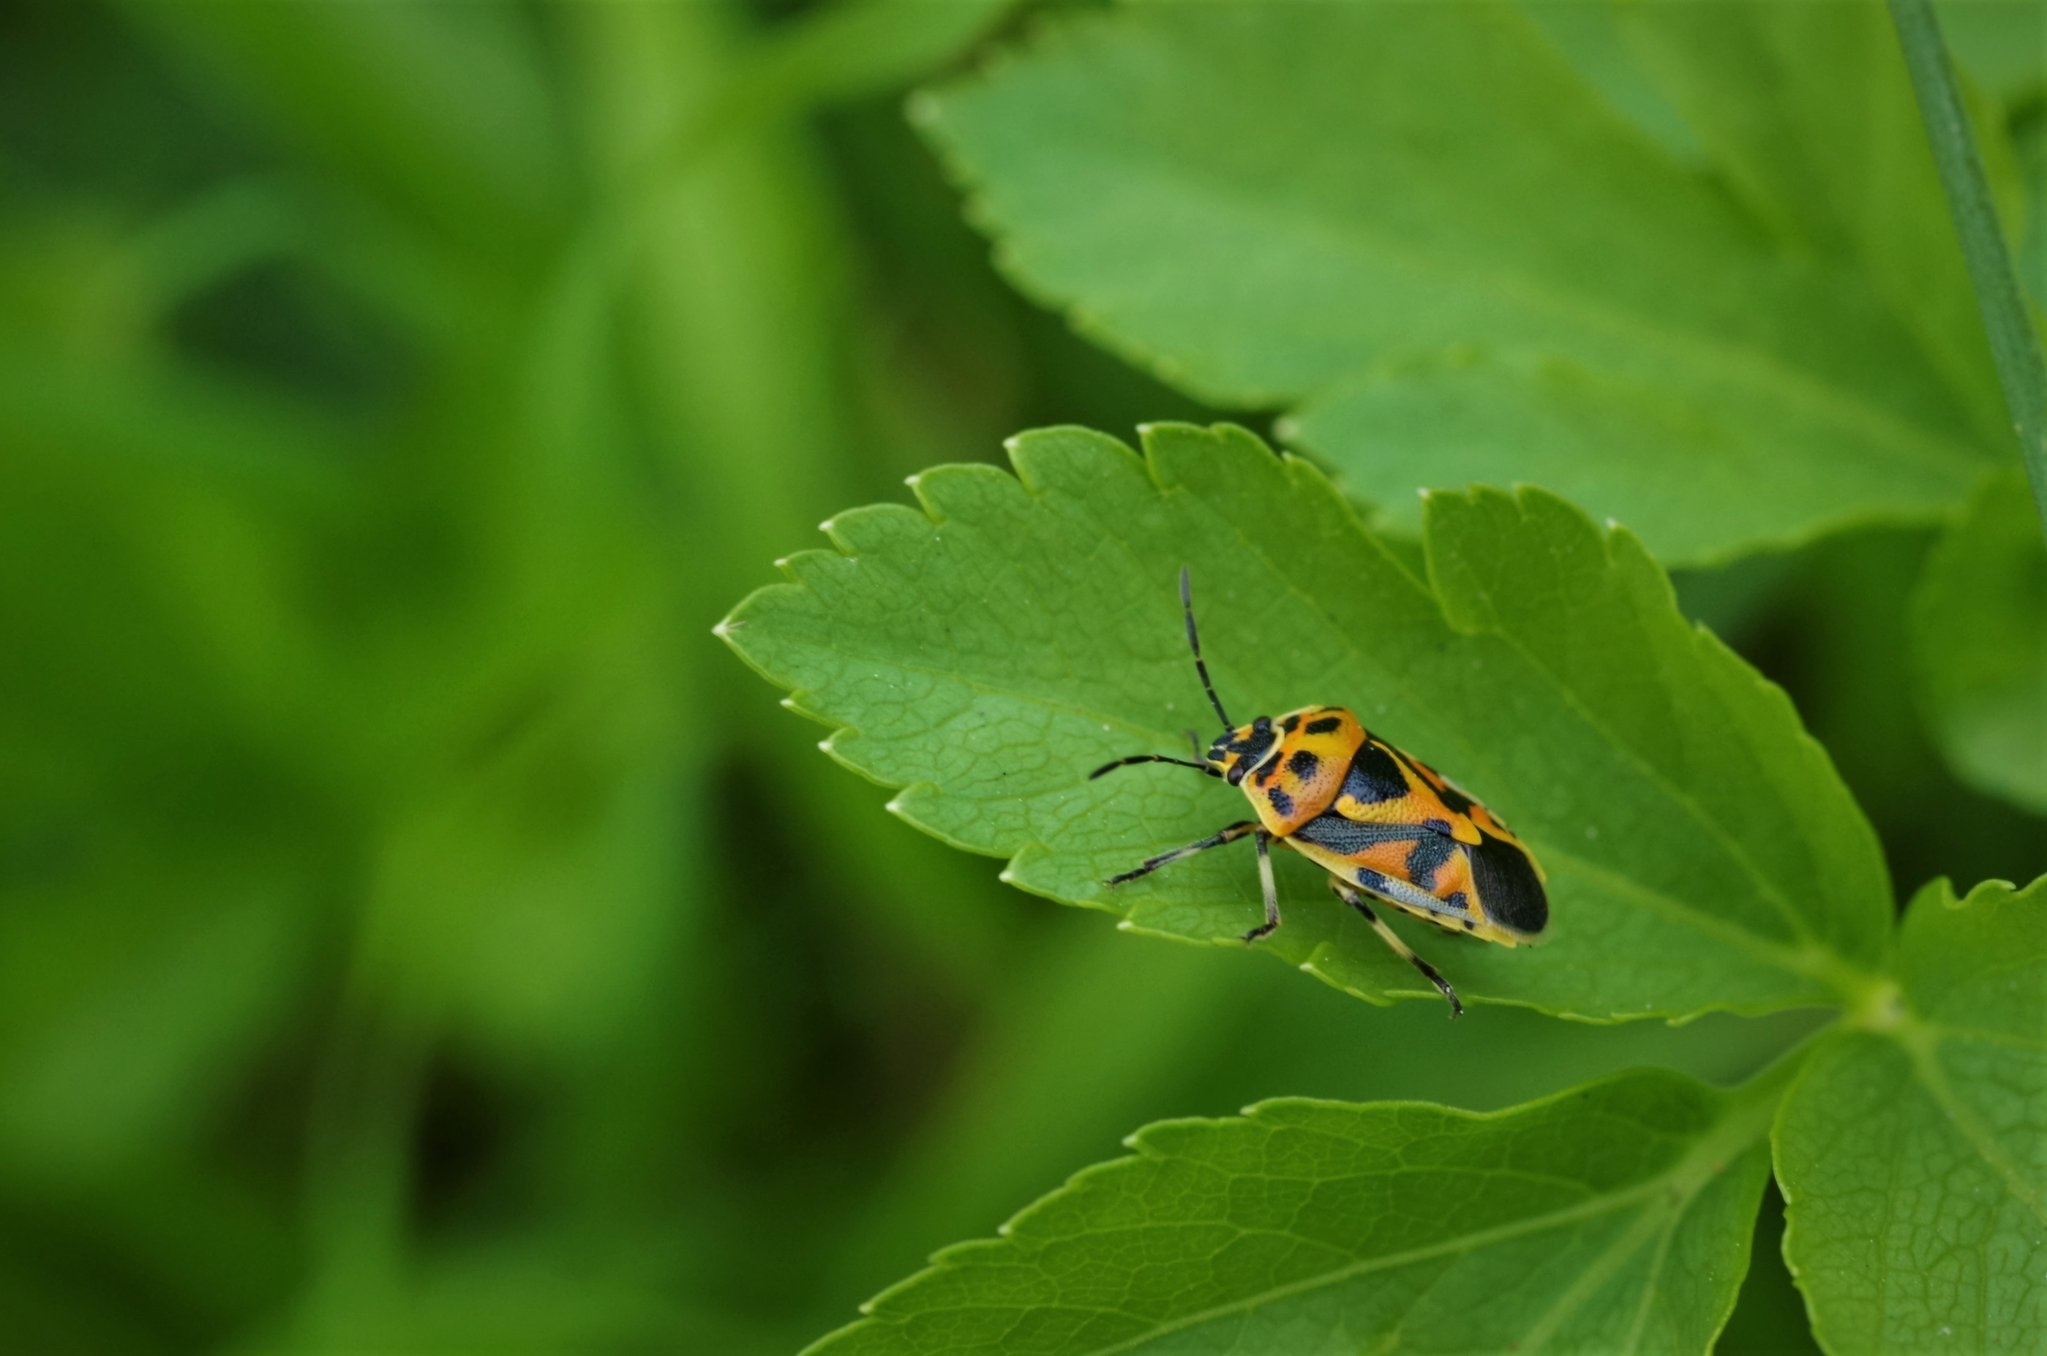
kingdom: Animalia
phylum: Arthropoda
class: Insecta
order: Hemiptera
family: Pentatomidae
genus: Eurydema
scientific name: Eurydema ornata
